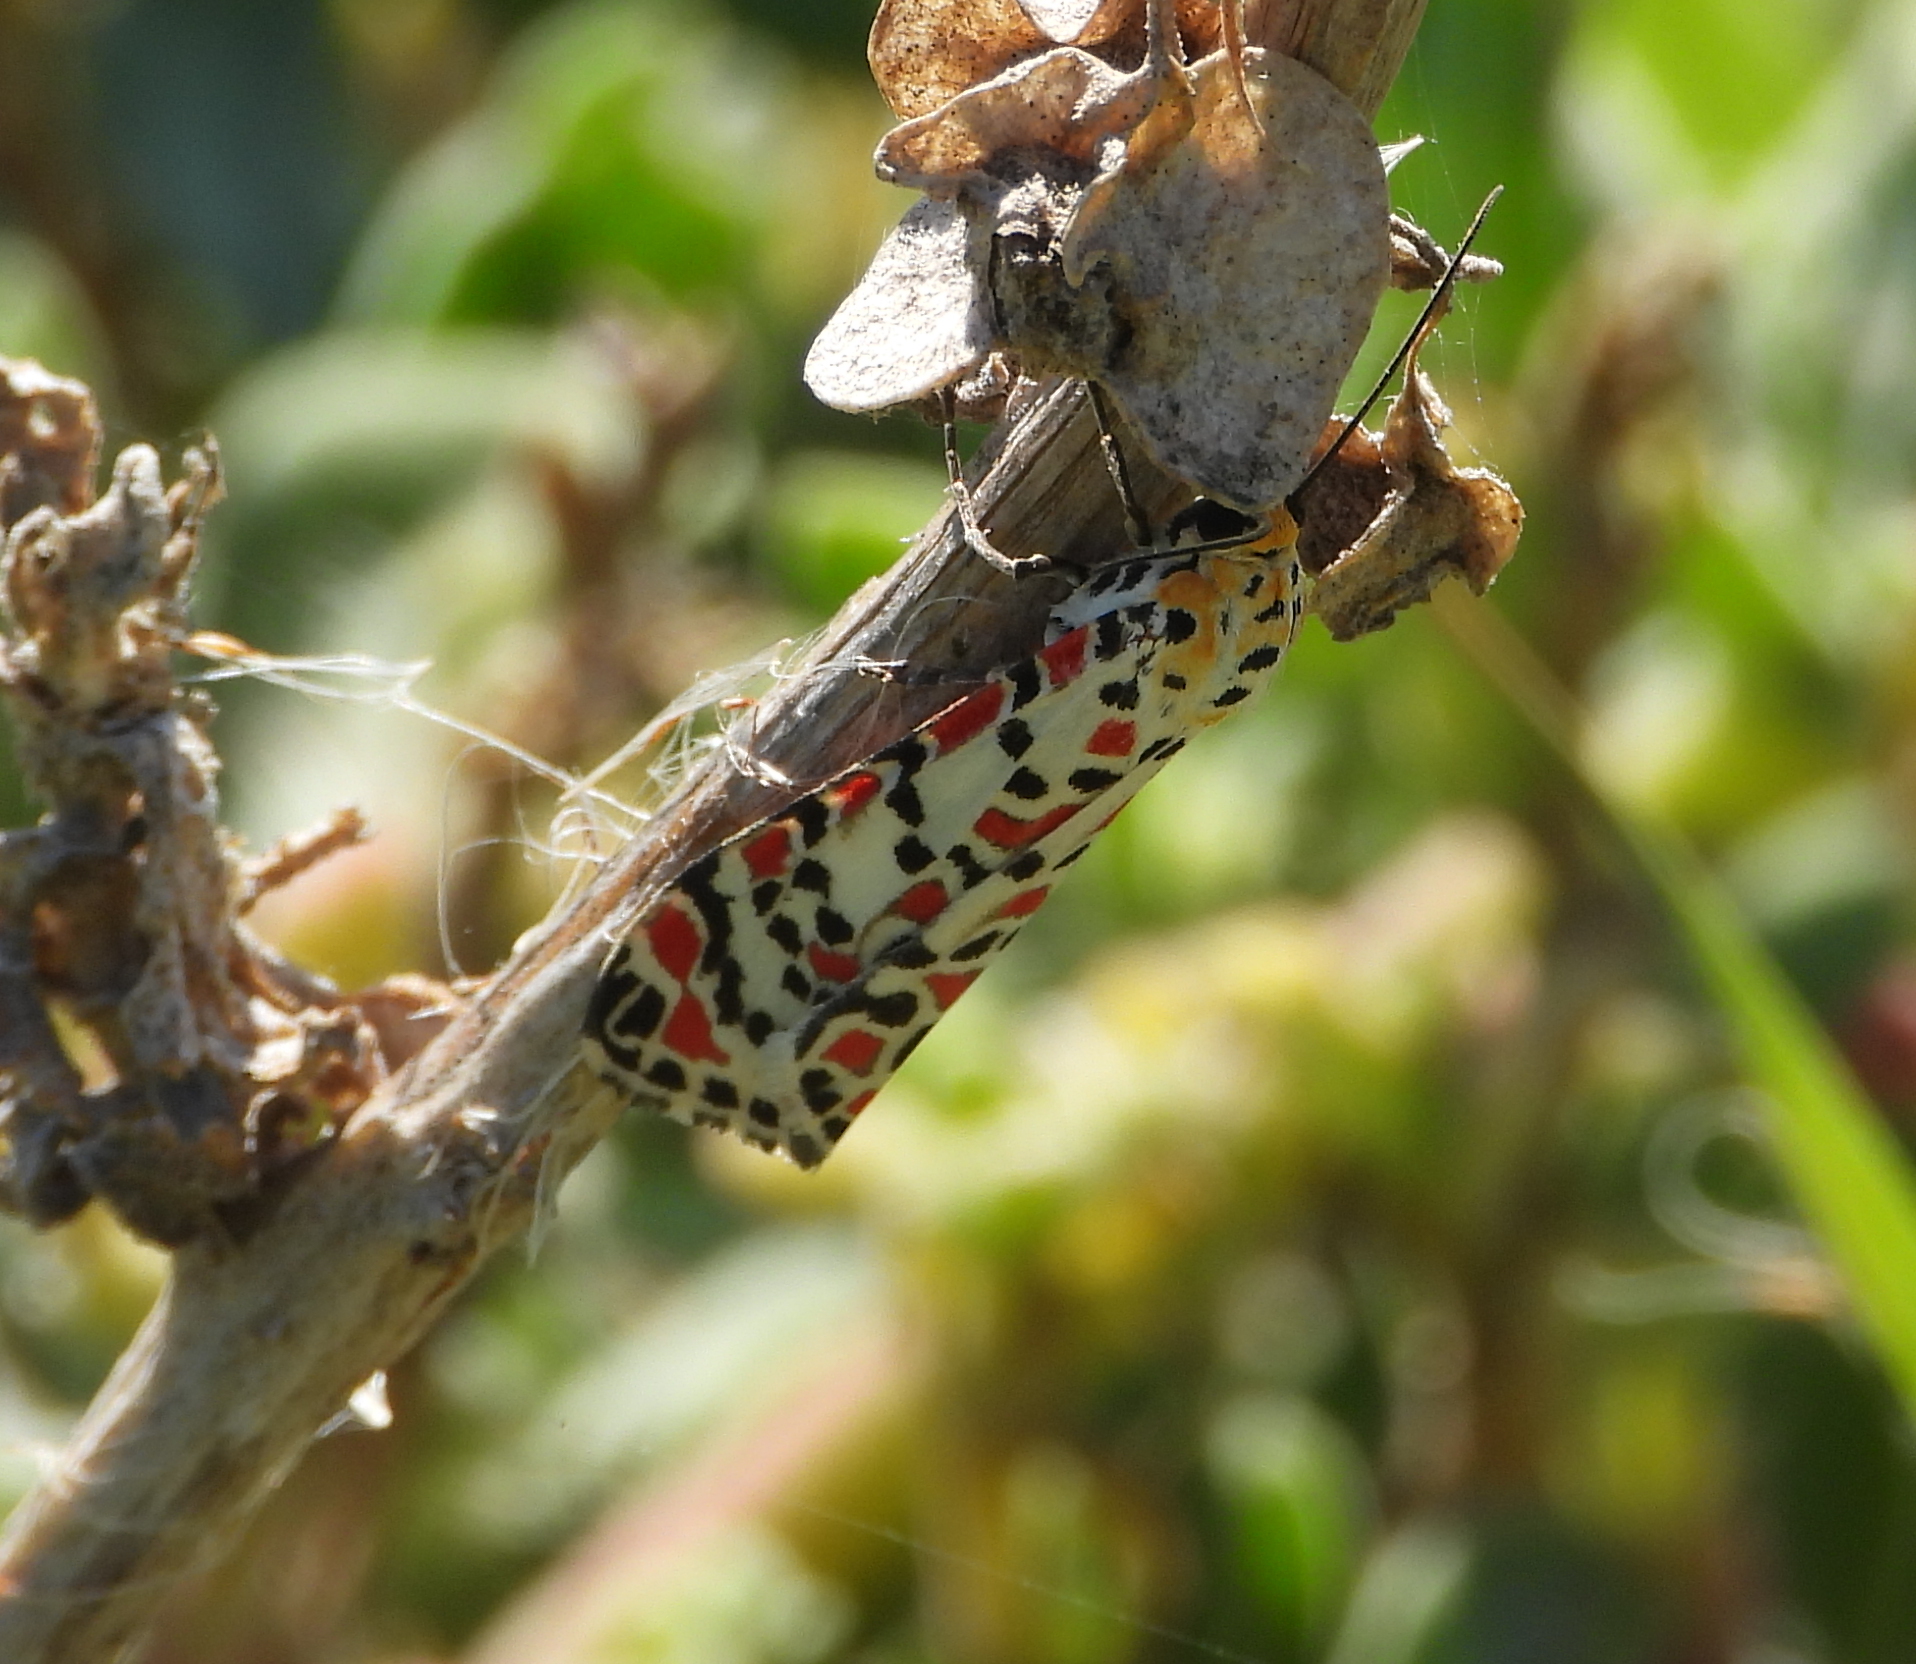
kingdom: Animalia
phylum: Arthropoda
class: Insecta
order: Lepidoptera
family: Erebidae
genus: Utetheisa
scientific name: Utetheisa pulchella
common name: Crimson speckled
